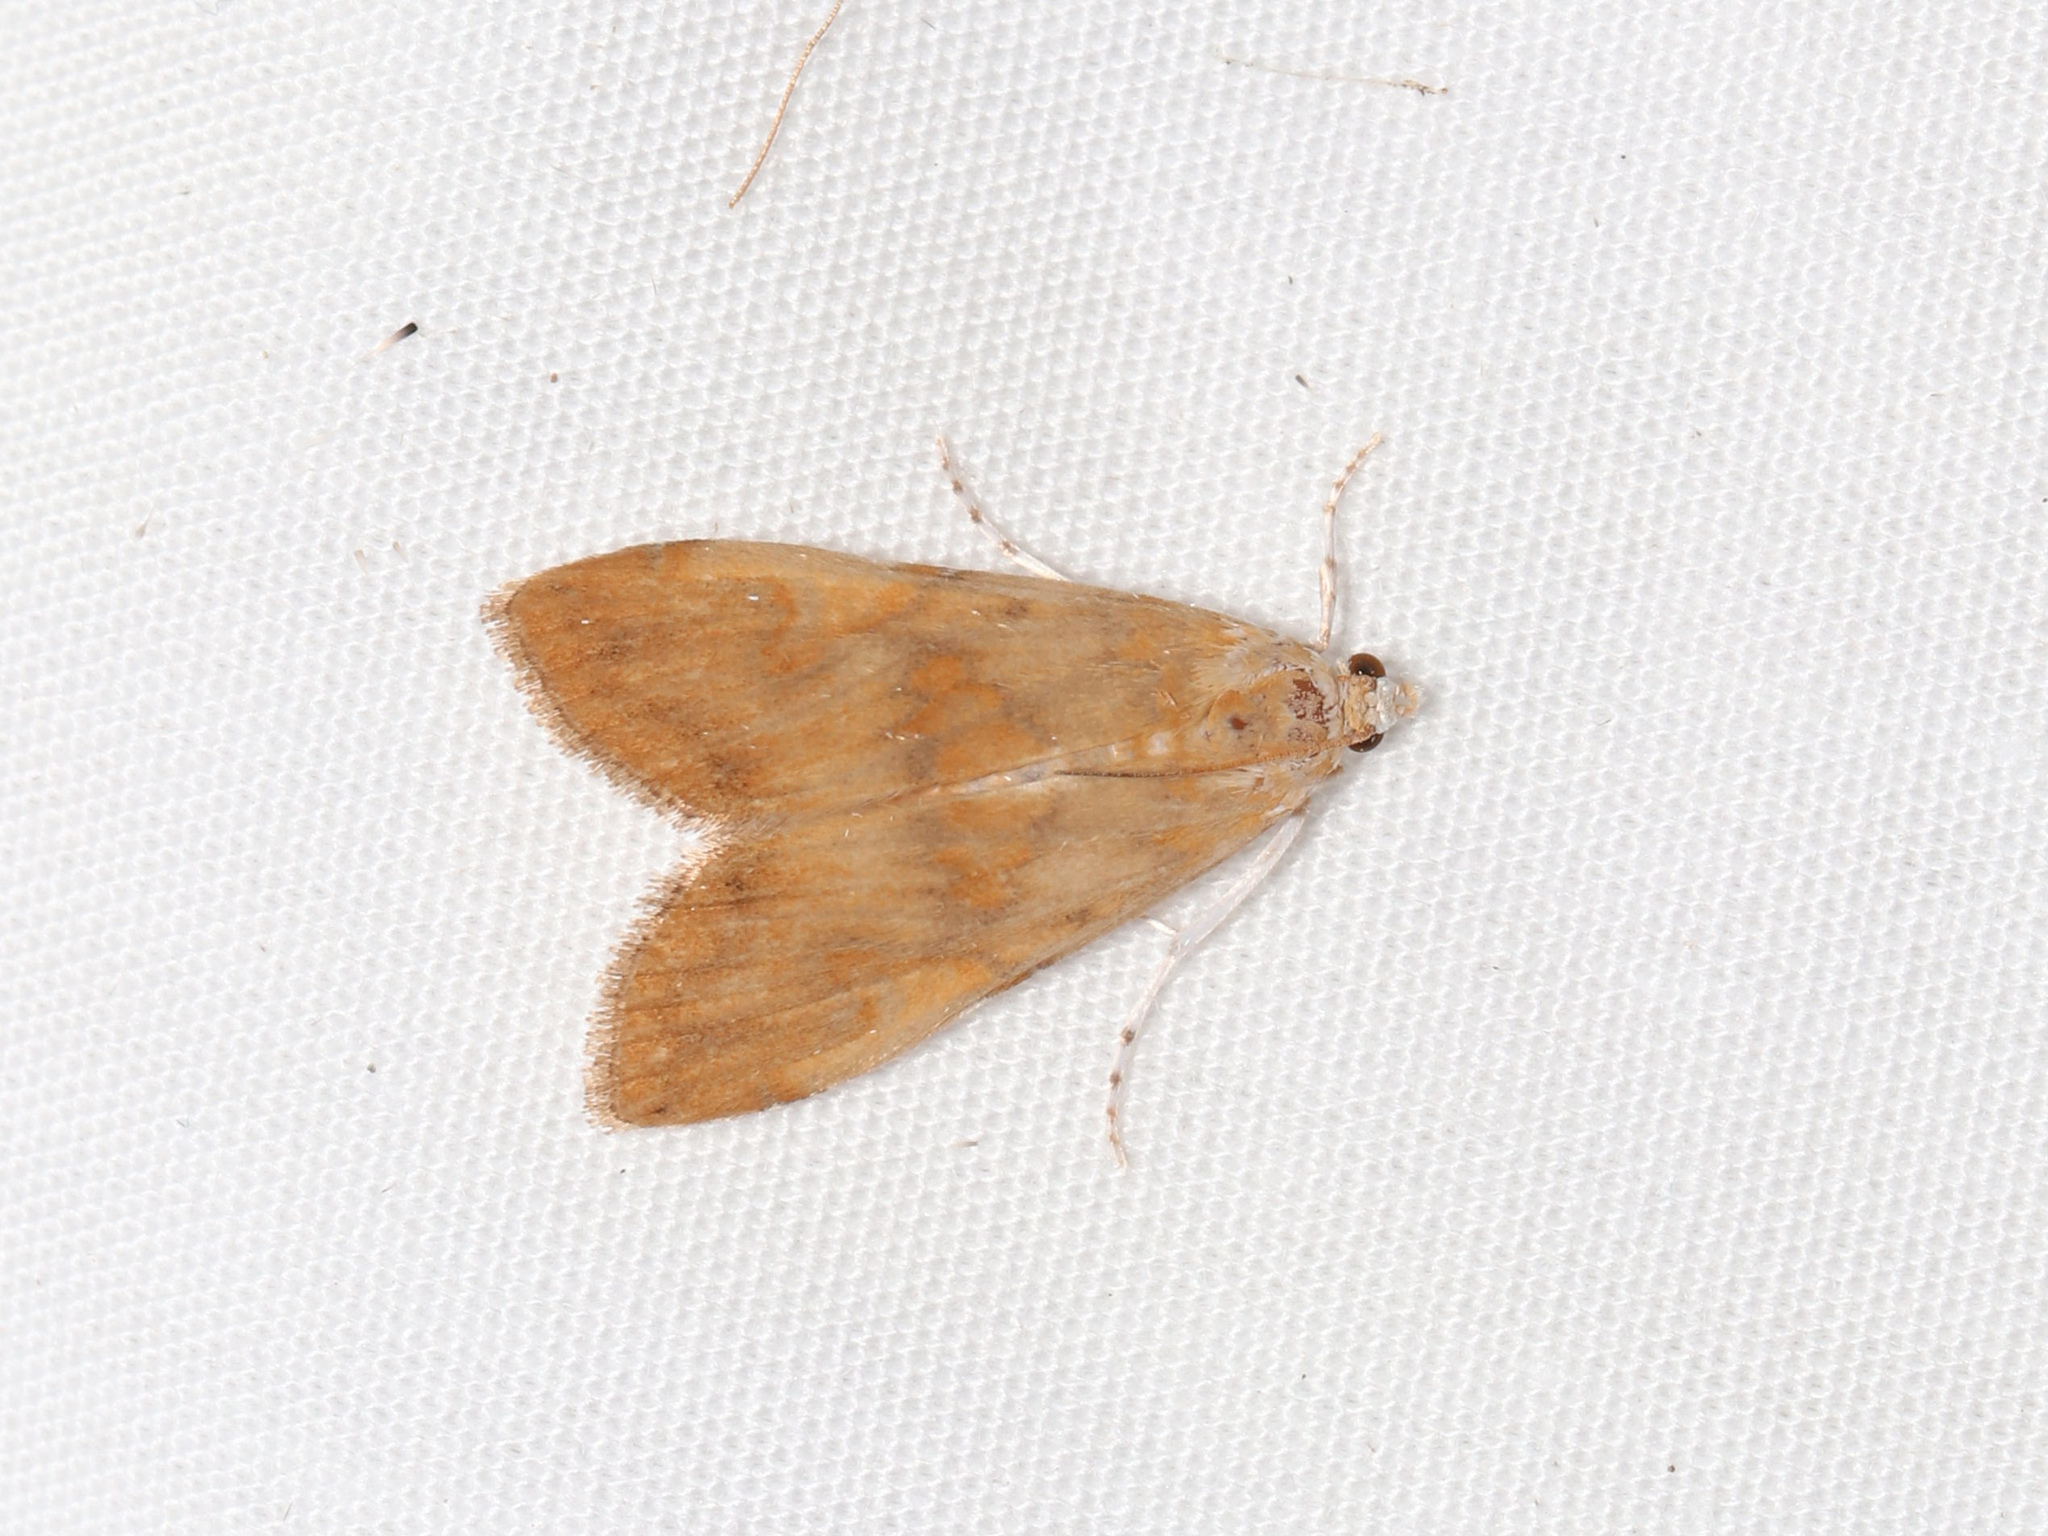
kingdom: Animalia
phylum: Arthropoda
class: Insecta
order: Lepidoptera
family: Crambidae
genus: Elophila
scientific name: Elophila gyralis
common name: Waterlily borer moth
